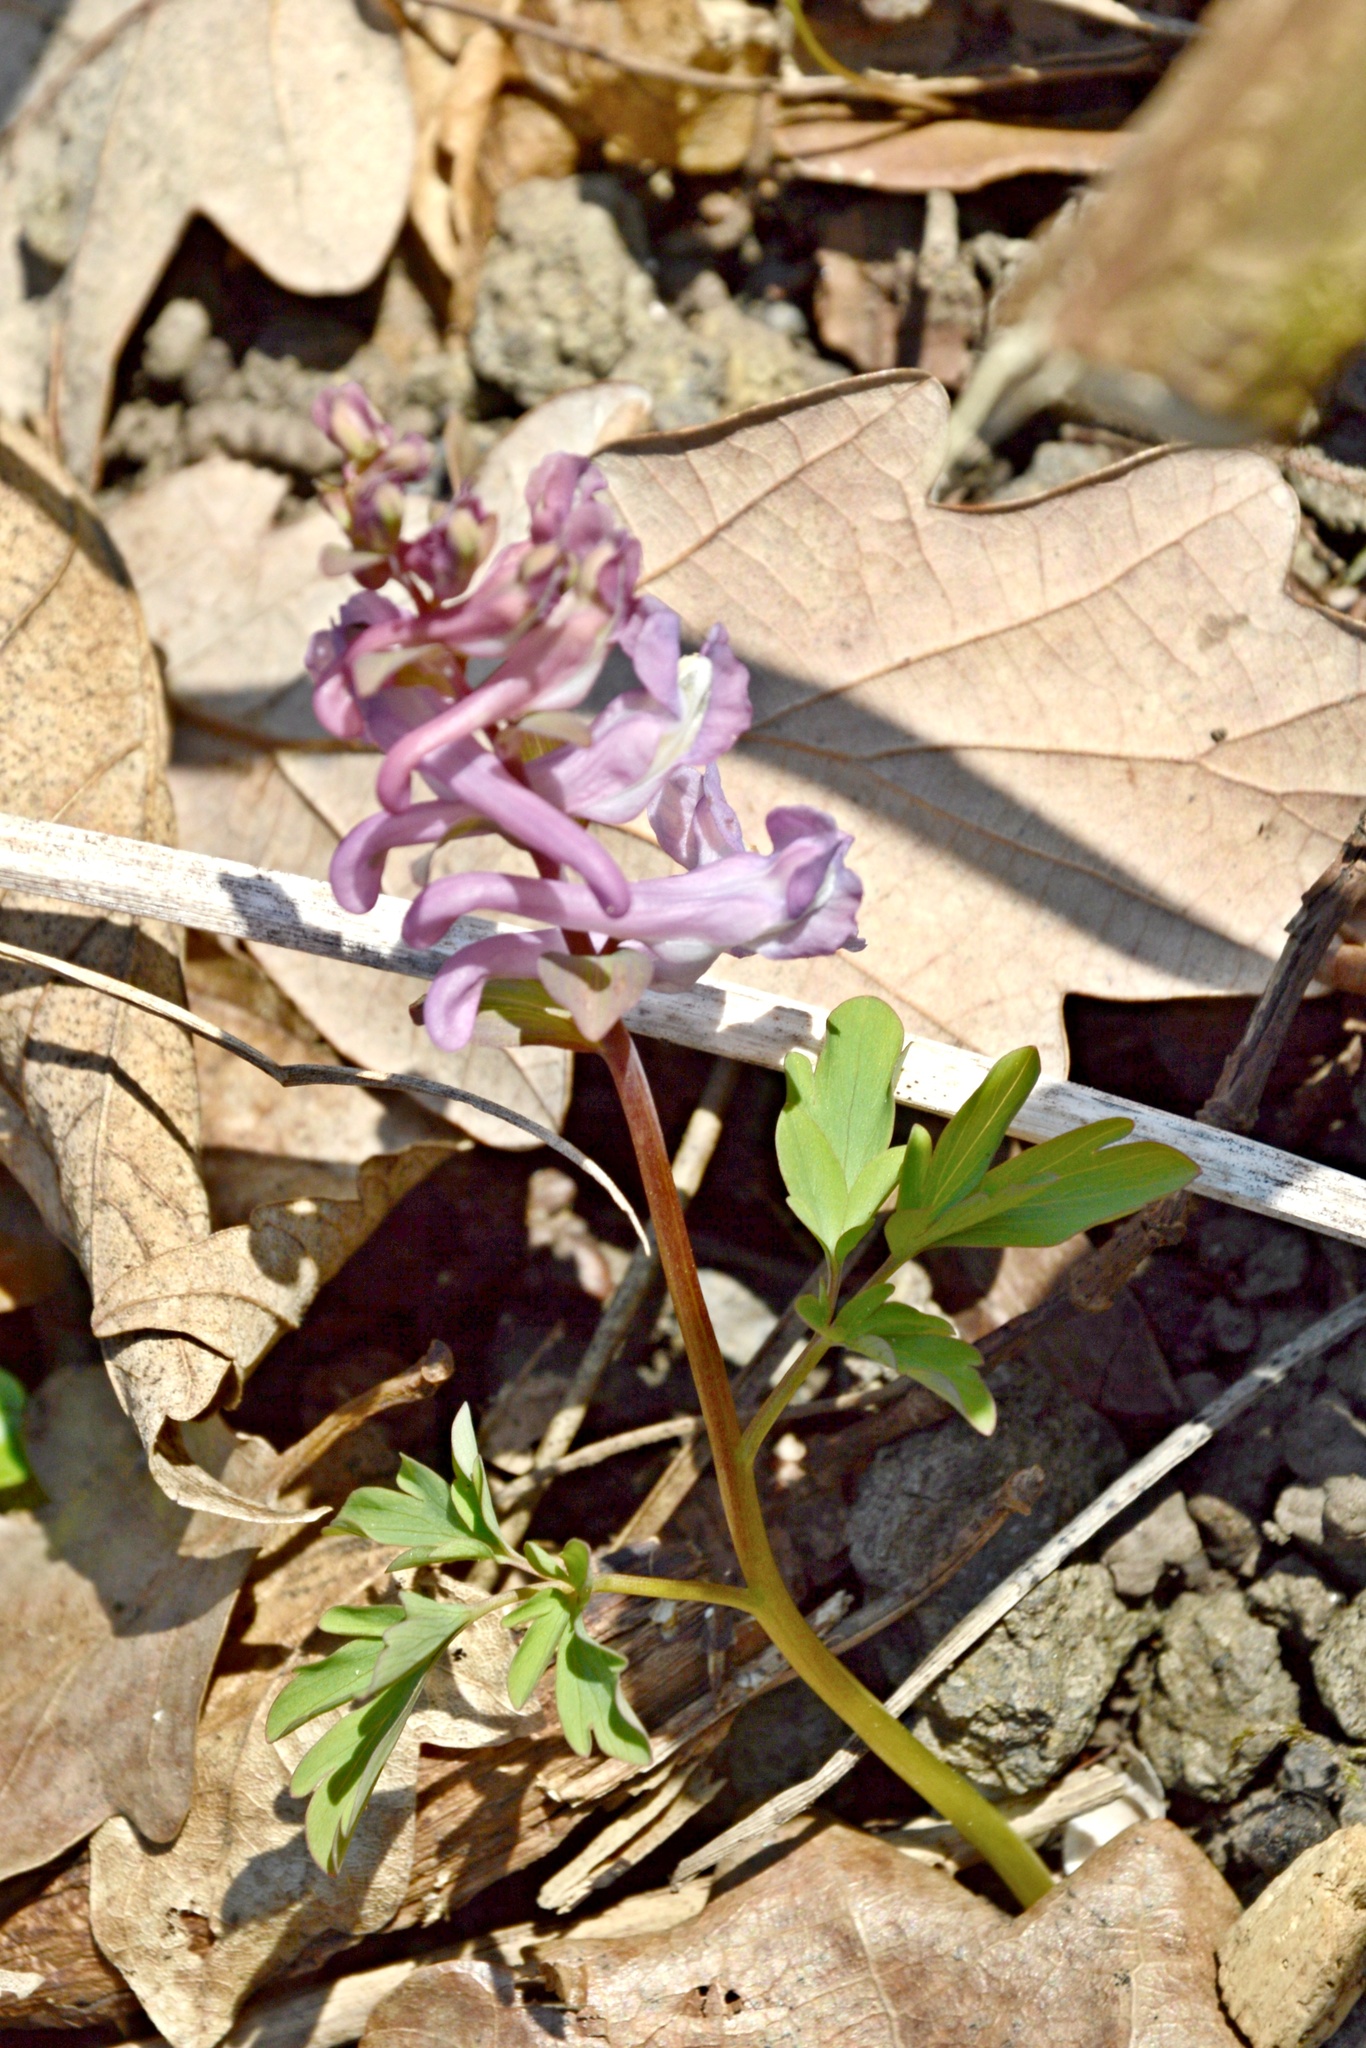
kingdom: Plantae
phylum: Tracheophyta
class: Magnoliopsida
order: Ranunculales
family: Papaveraceae
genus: Corydalis
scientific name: Corydalis cava
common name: Hollowroot
